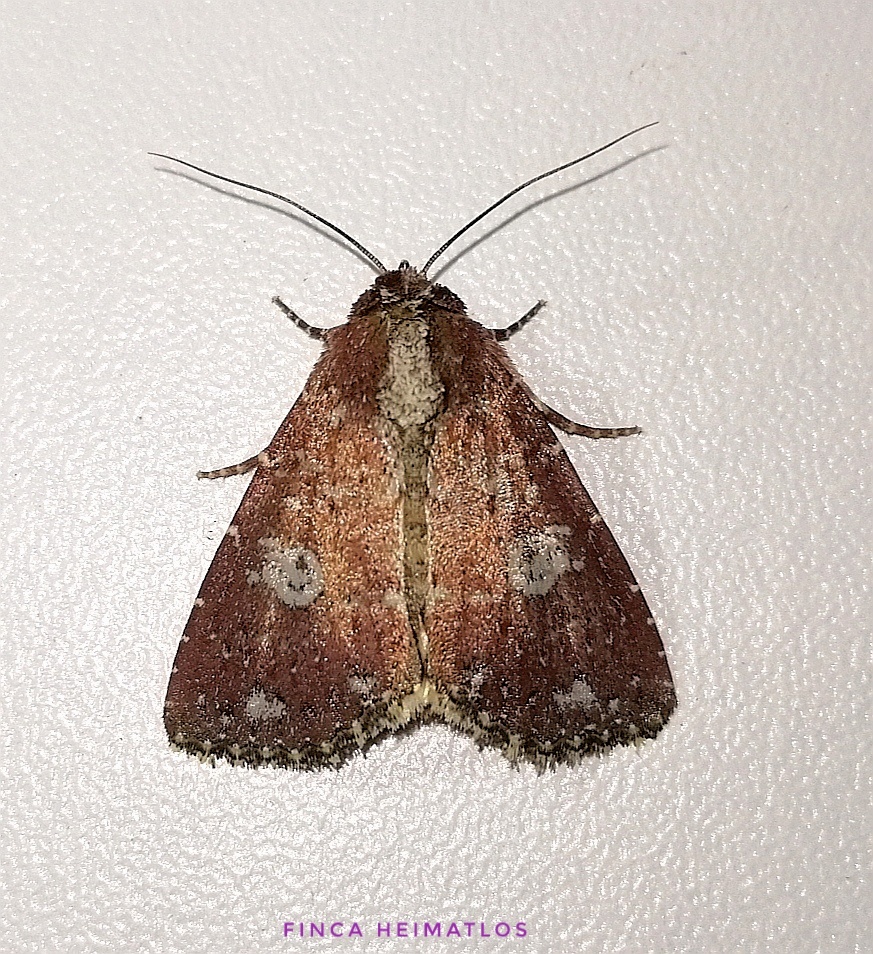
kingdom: Animalia
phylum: Arthropoda
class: Insecta
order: Lepidoptera
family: Noctuidae
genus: Condica
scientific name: Condica griseirena
